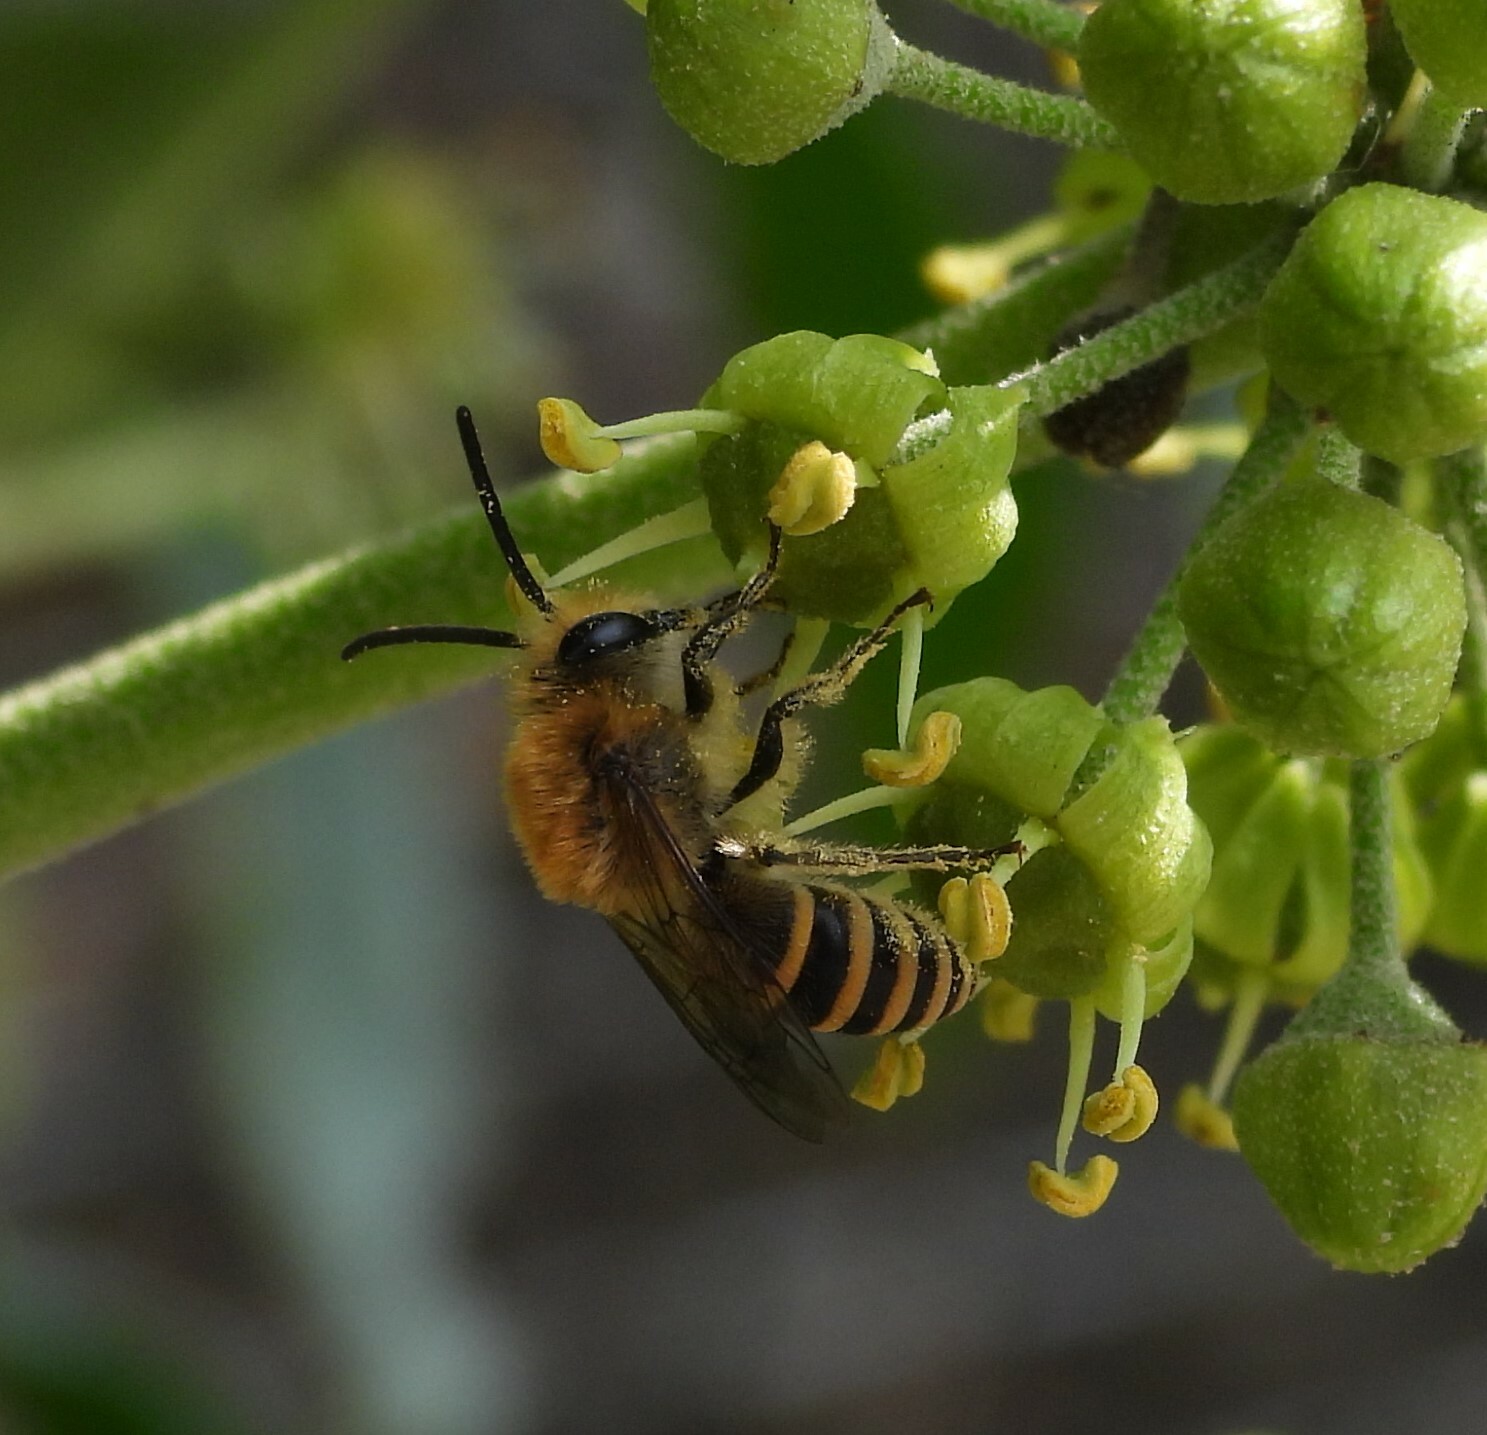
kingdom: Animalia
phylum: Arthropoda
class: Insecta
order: Hymenoptera
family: Colletidae
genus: Colletes
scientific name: Colletes hederae
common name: Ivy bee
